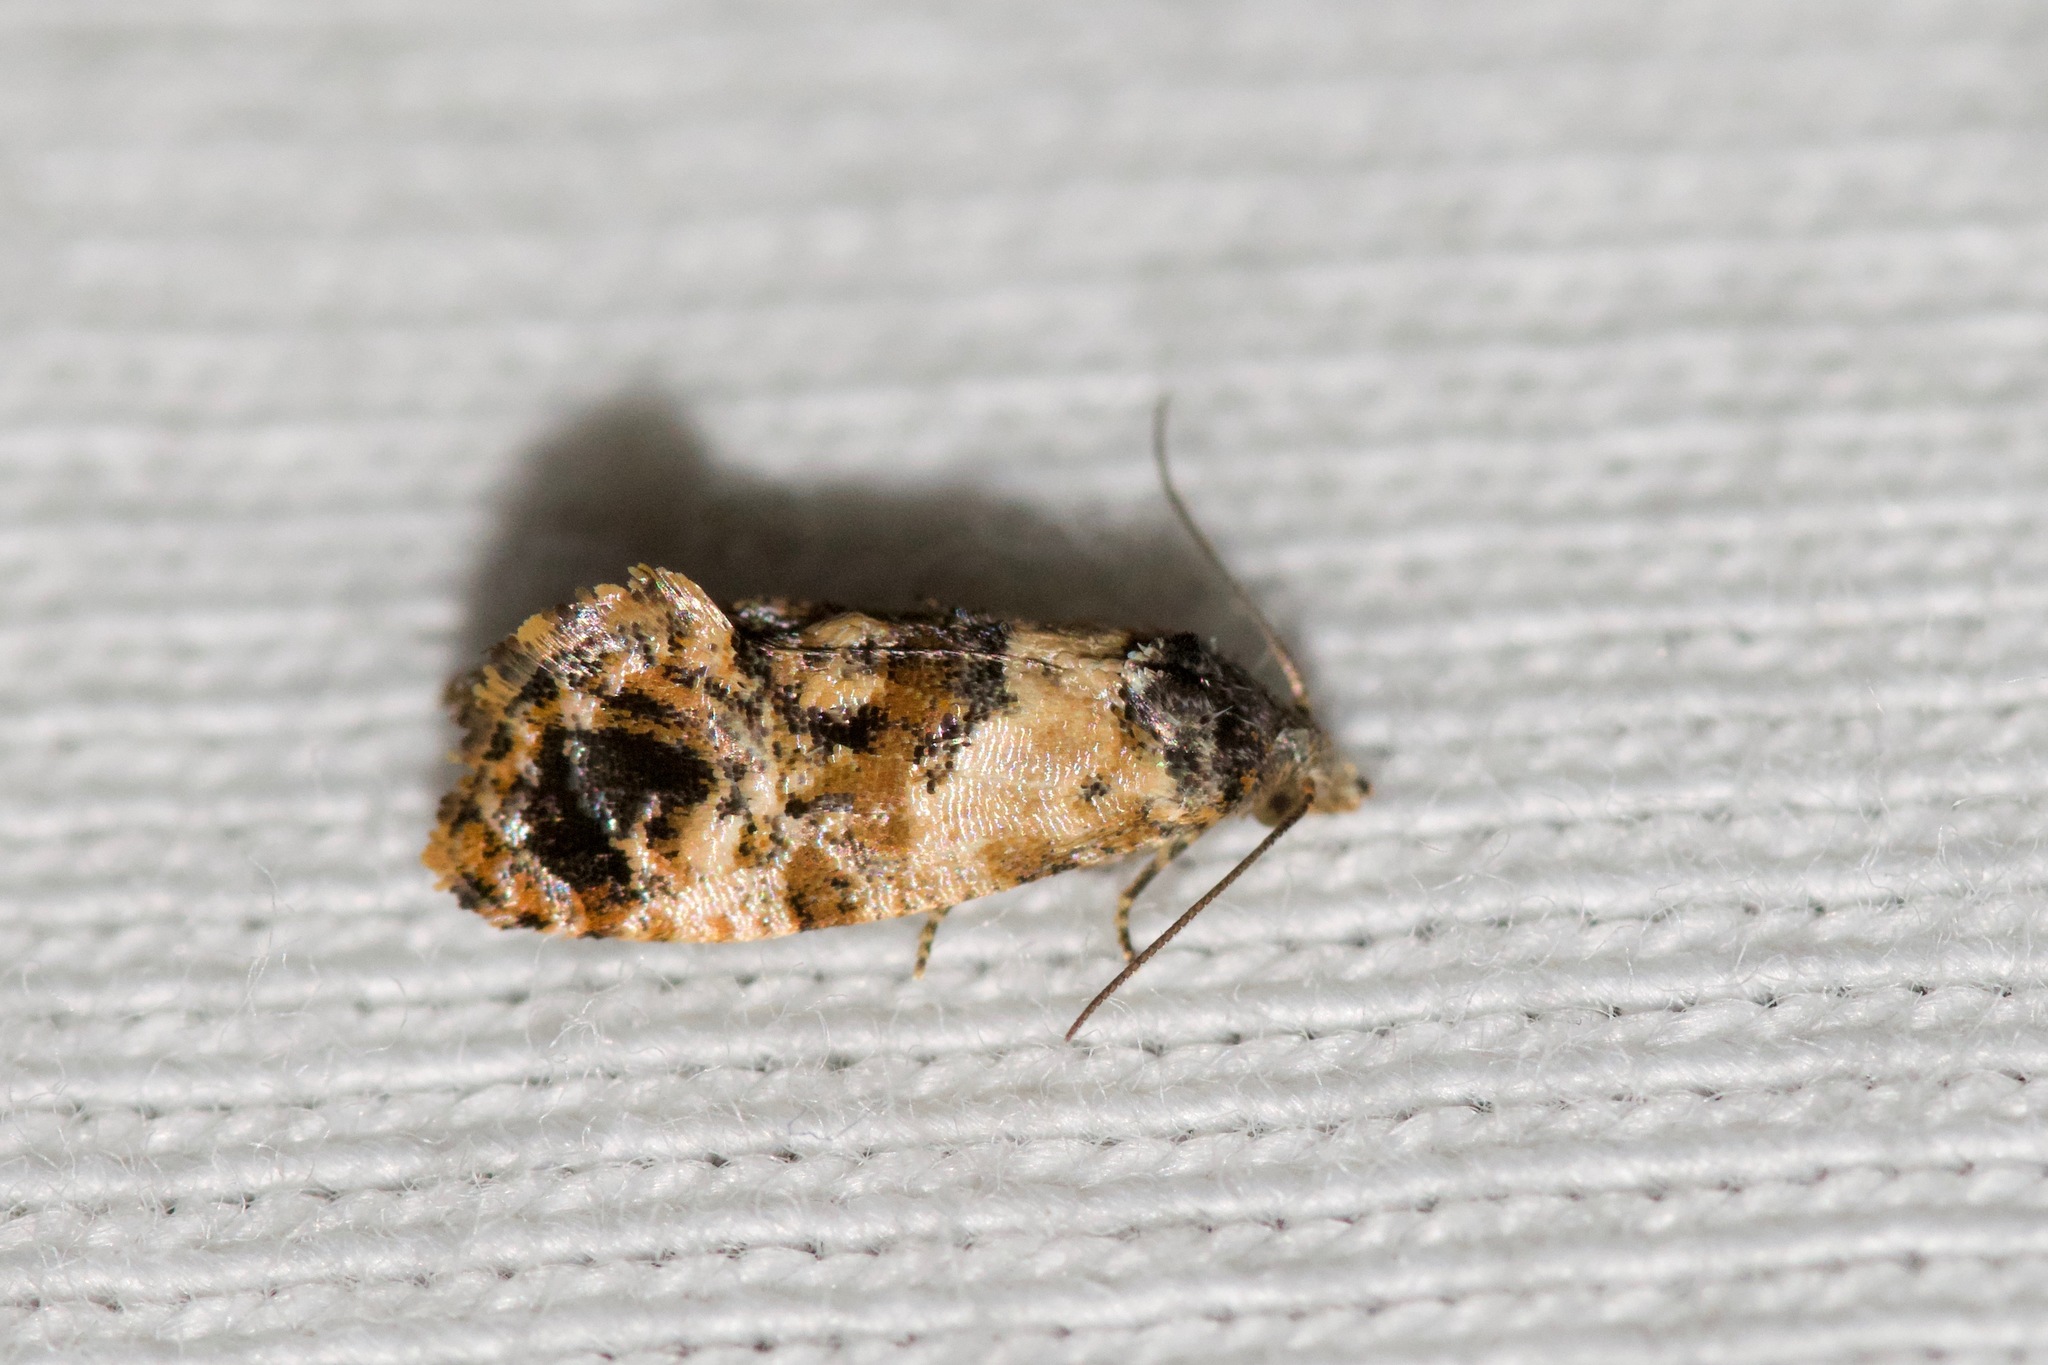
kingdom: Animalia
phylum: Arthropoda
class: Insecta
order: Lepidoptera
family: Tortricidae
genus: Cochylis
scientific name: Cochylis Cochylichroa hoffmanana
